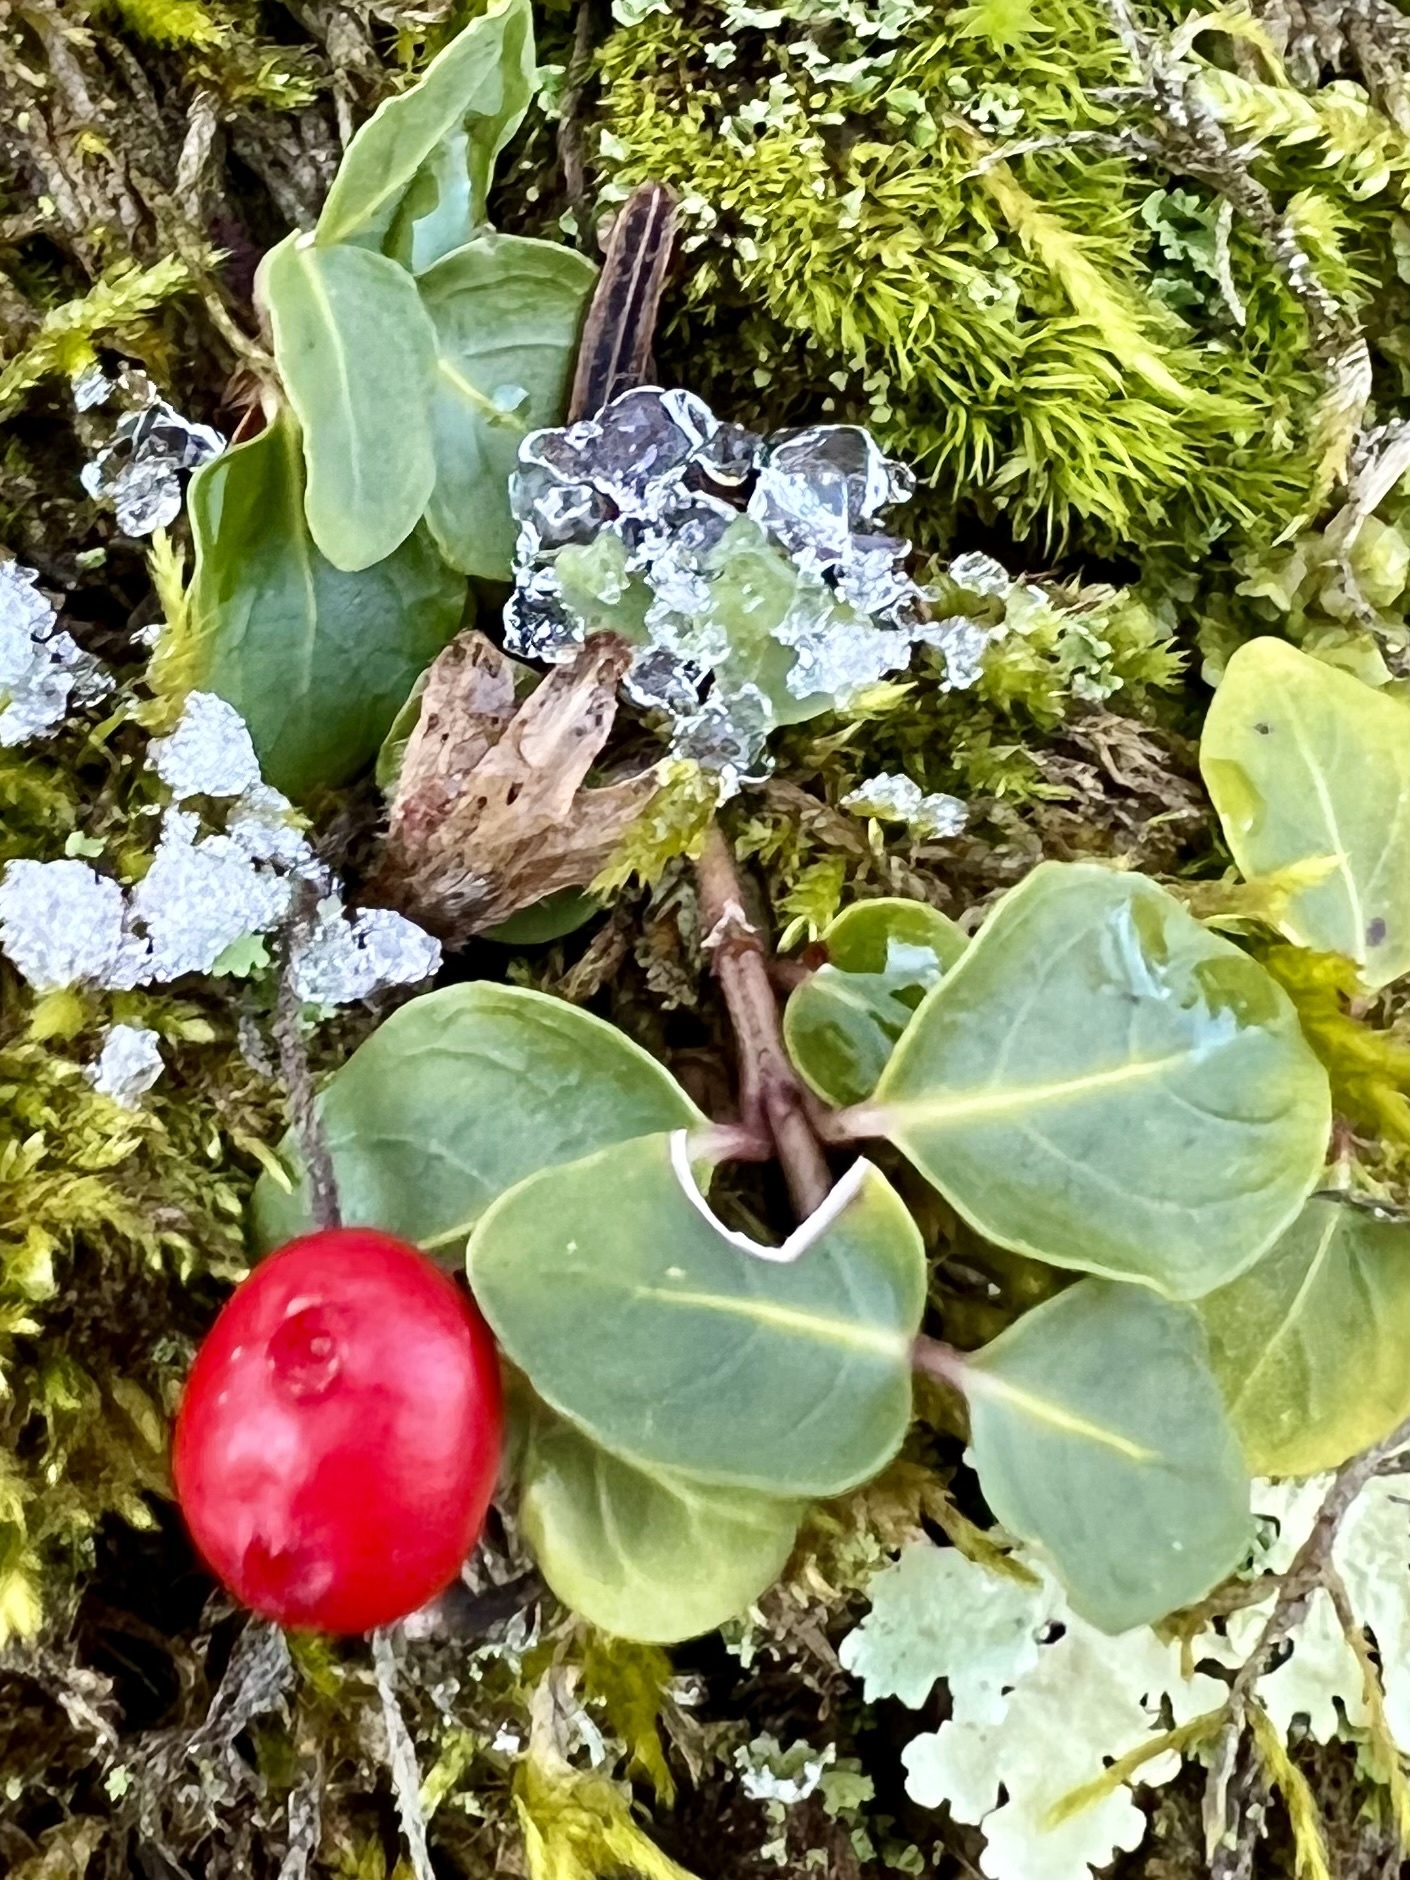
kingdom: Plantae
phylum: Tracheophyta
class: Magnoliopsida
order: Gentianales
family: Rubiaceae
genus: Mitchella
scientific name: Mitchella repens
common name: Partridge-berry
